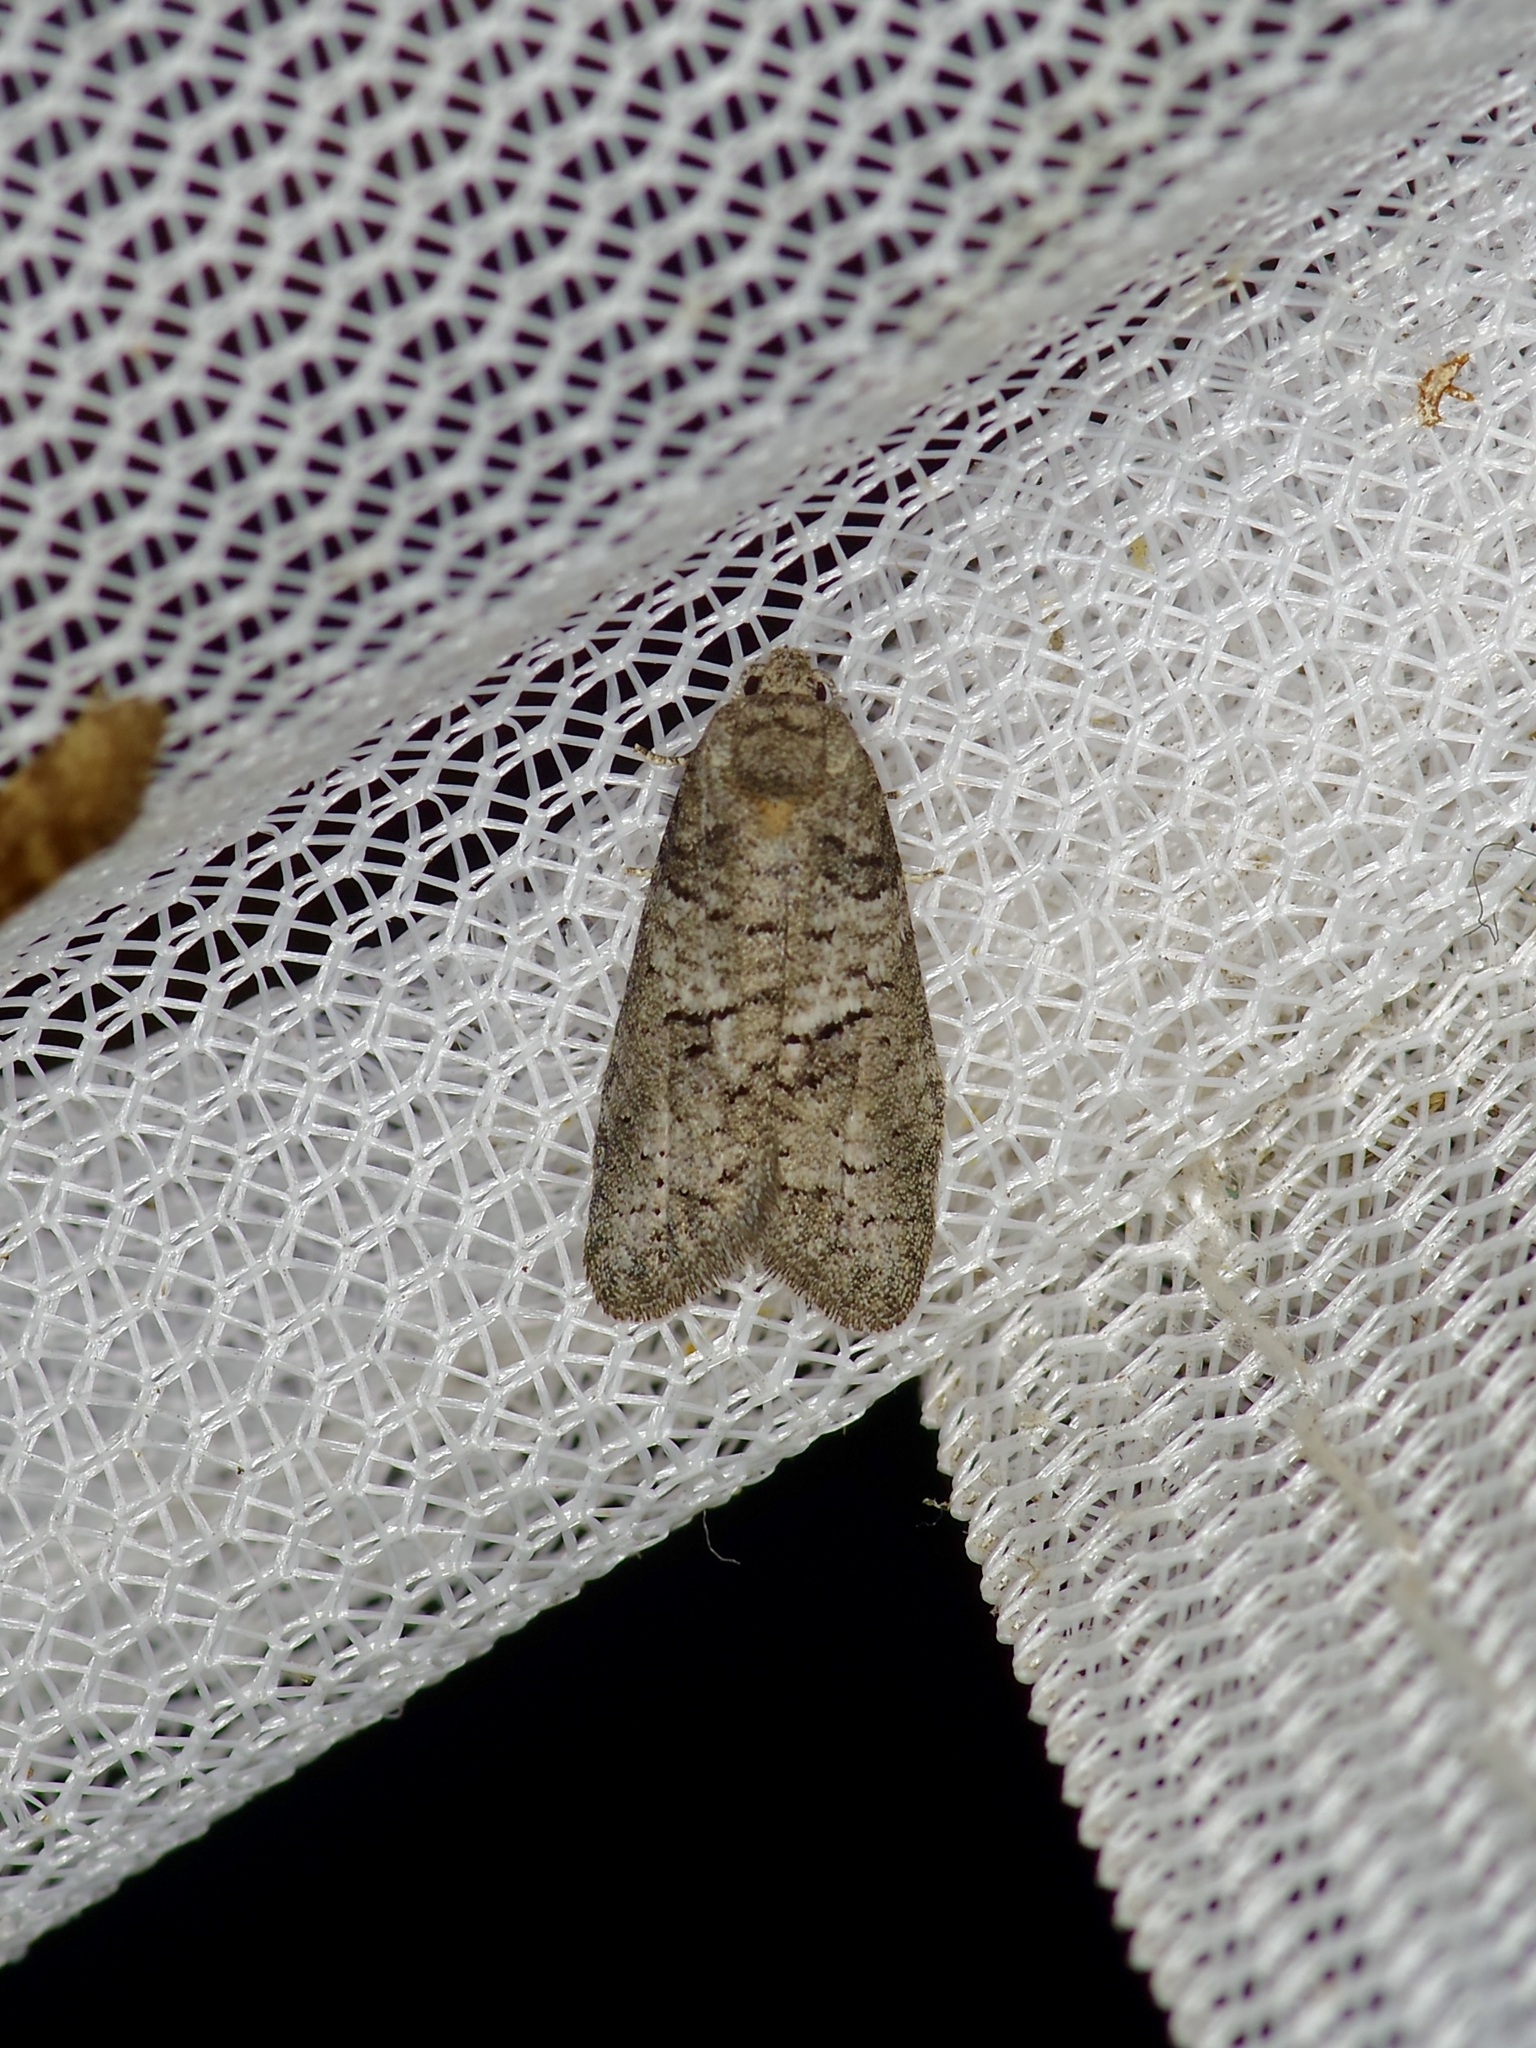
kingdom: Animalia
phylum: Arthropoda
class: Insecta
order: Lepidoptera
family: Tortricidae
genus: Decodes
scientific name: Decodes basiplagana
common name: Gray-marked tortricid
